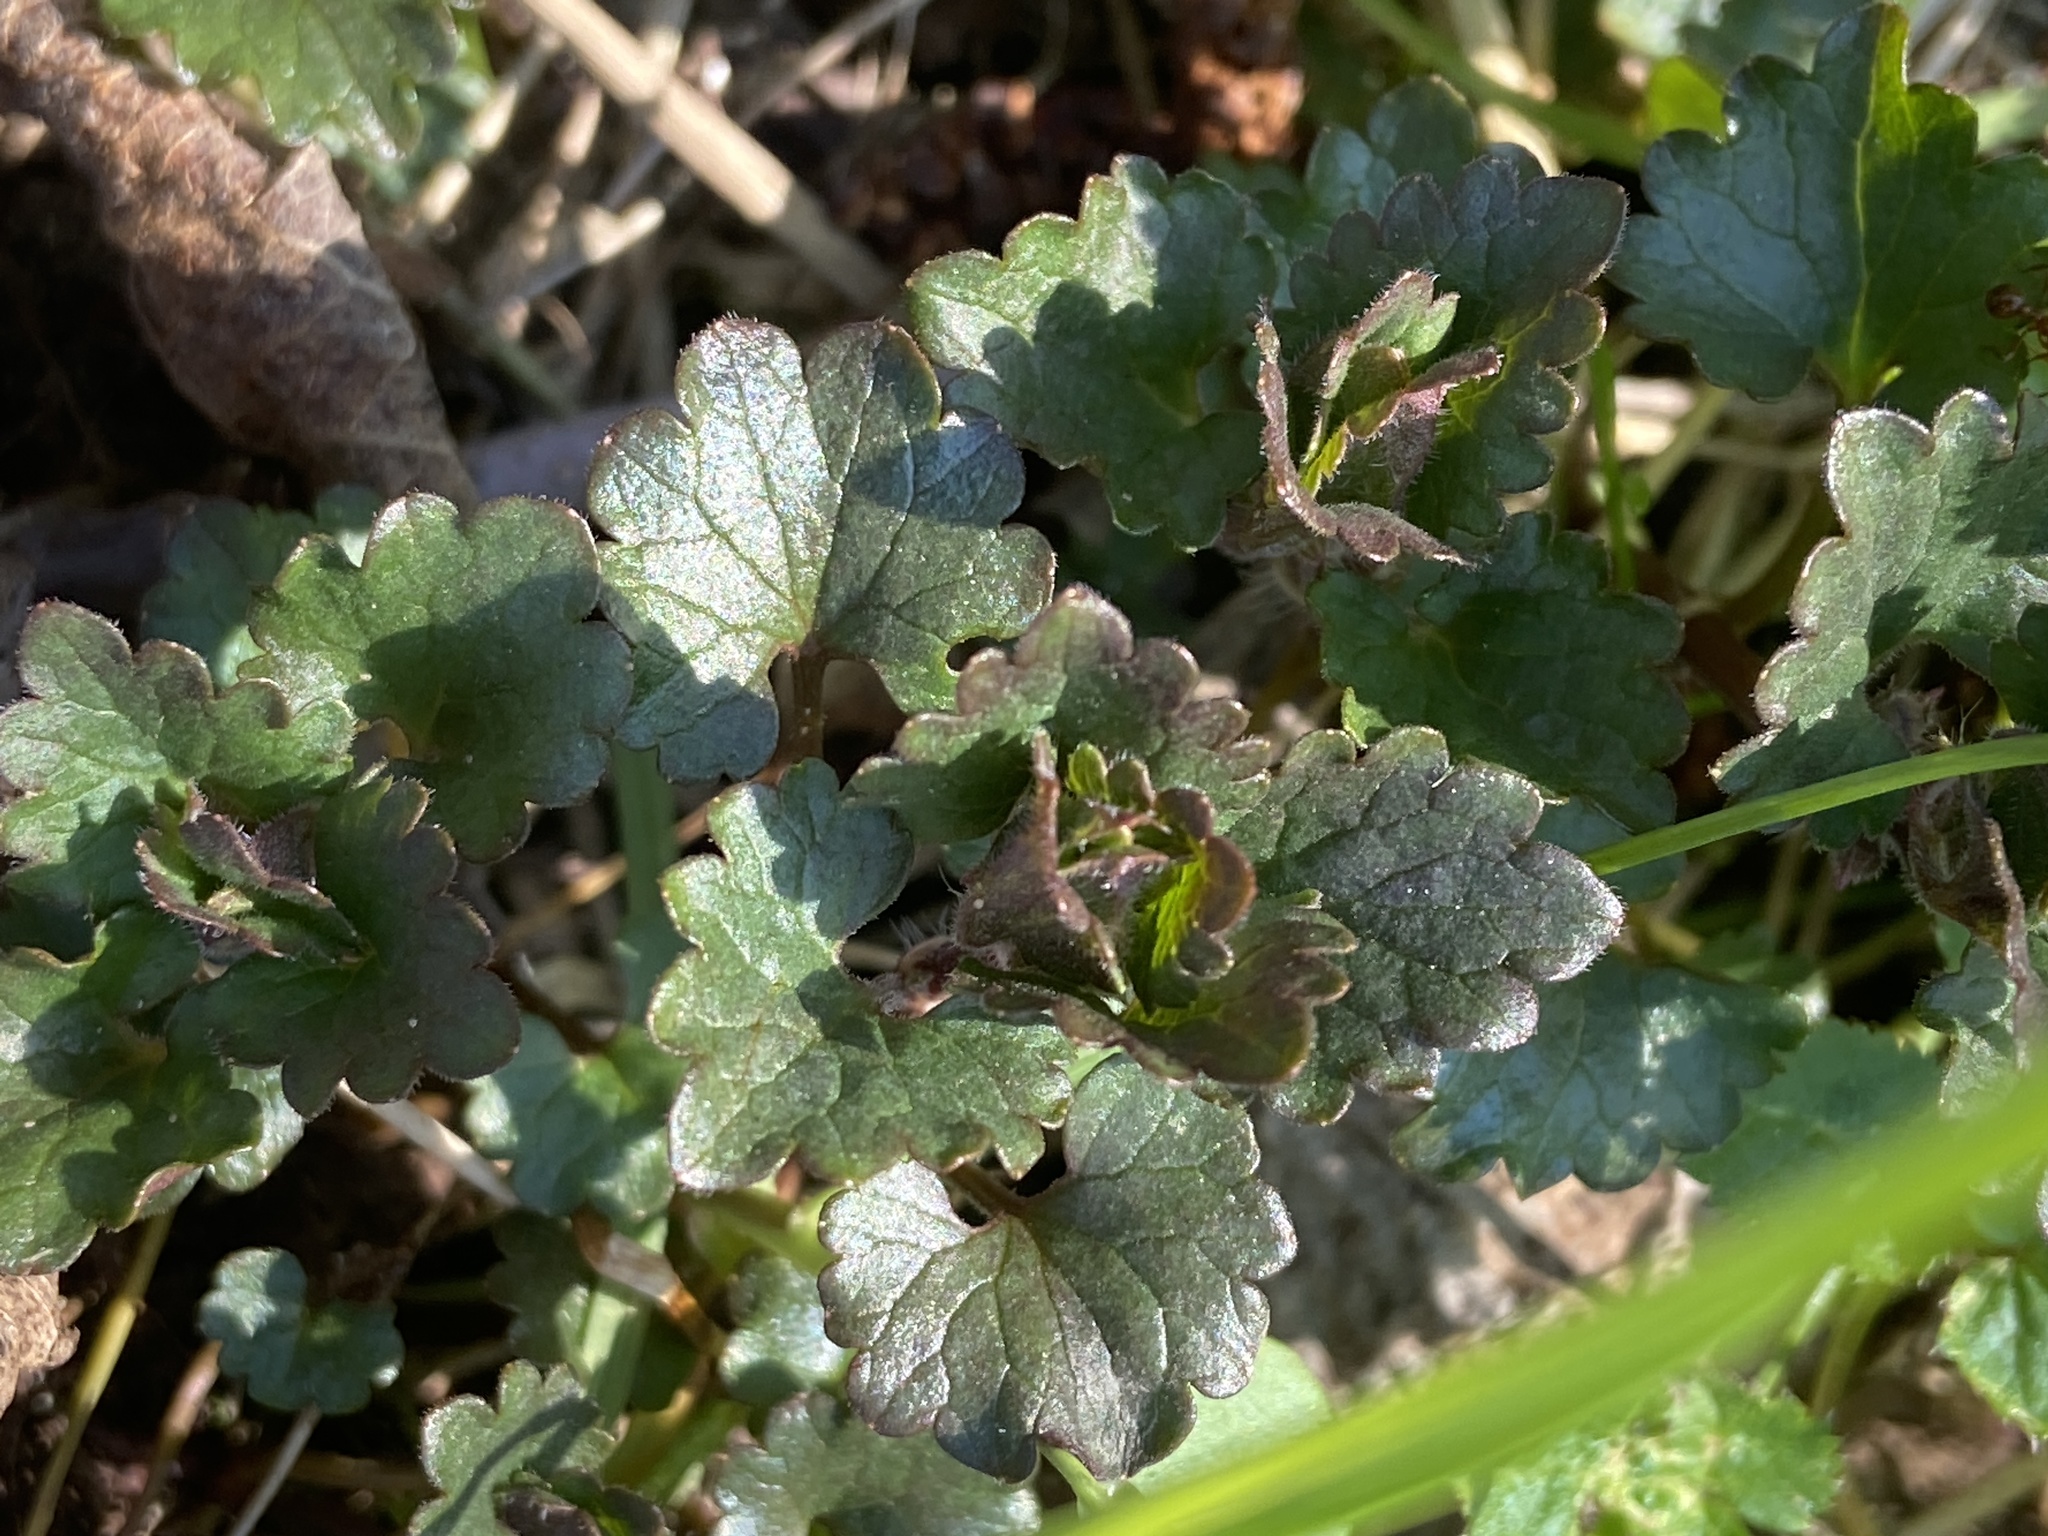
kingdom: Plantae
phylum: Tracheophyta
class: Magnoliopsida
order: Lamiales
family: Lamiaceae
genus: Glechoma
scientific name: Glechoma hederacea
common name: Ground ivy
